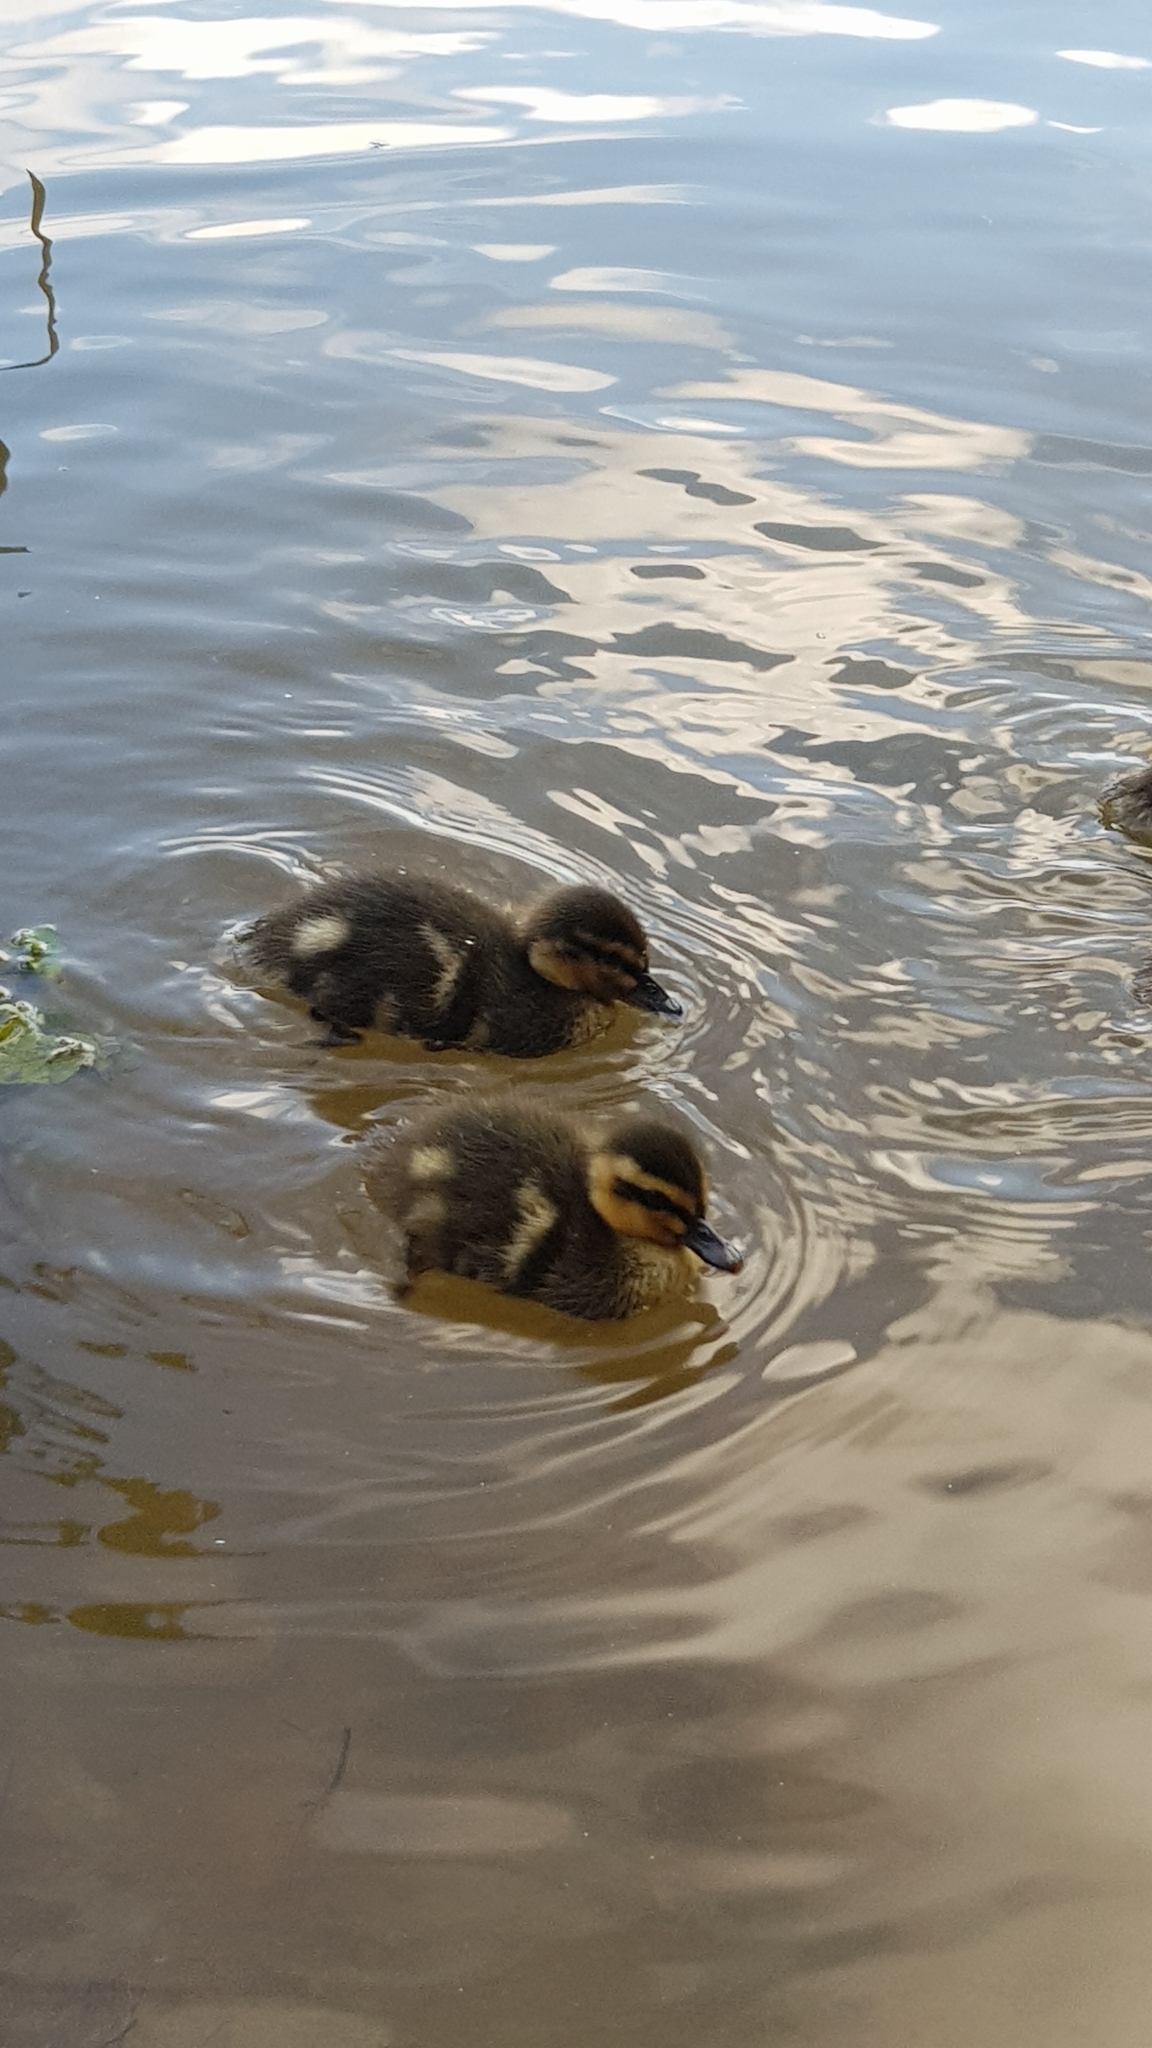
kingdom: Animalia
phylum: Chordata
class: Aves
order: Anseriformes
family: Anatidae
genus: Anas
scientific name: Anas platyrhynchos
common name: Mallard
